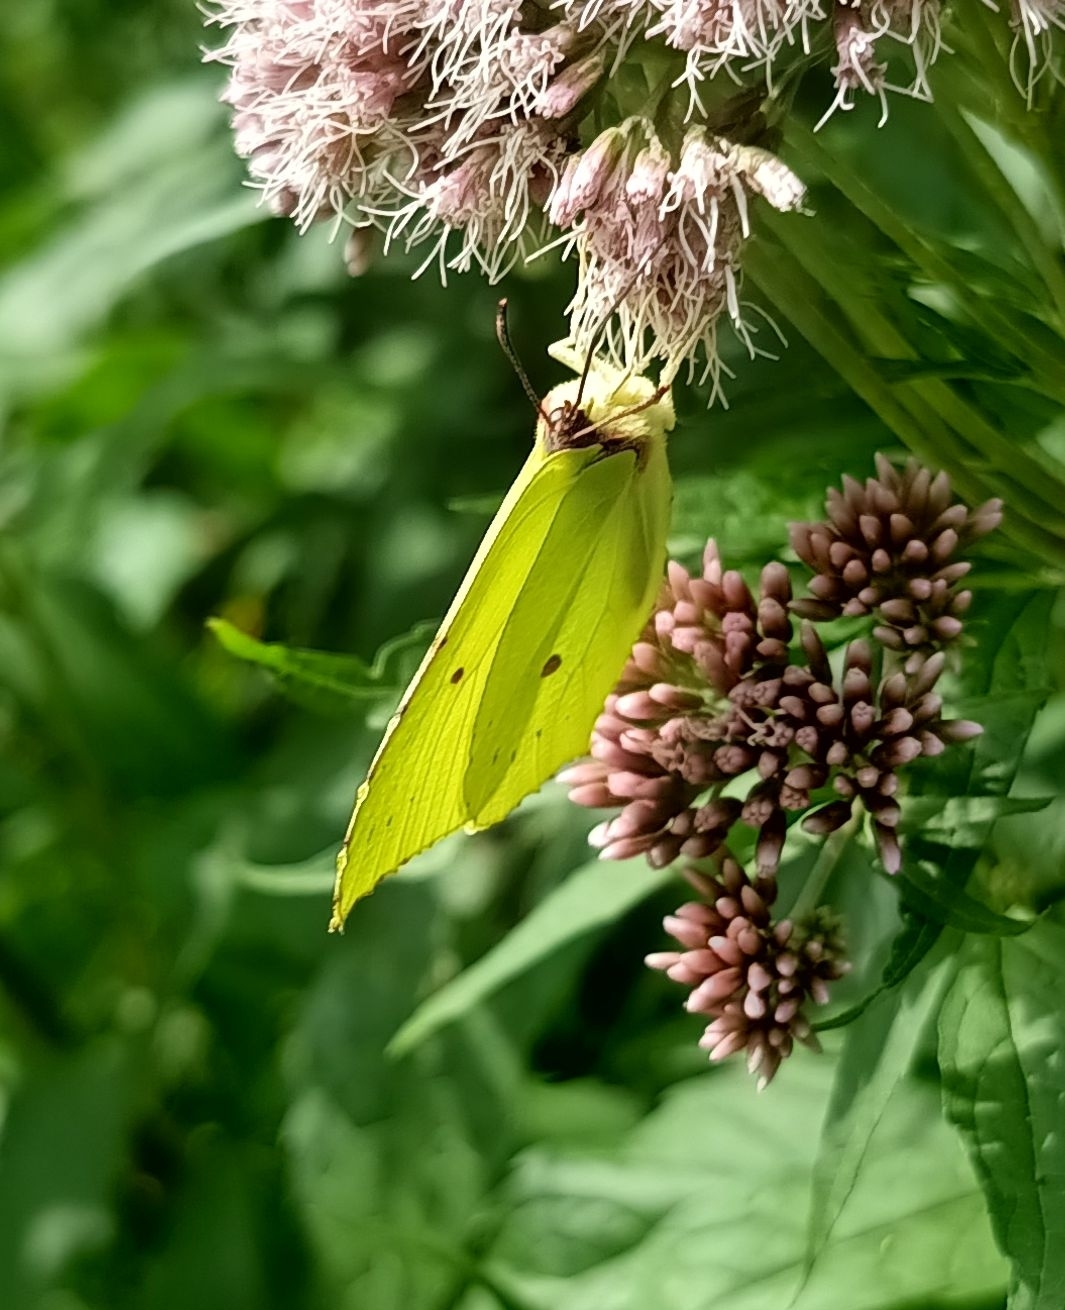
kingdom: Animalia
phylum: Arthropoda
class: Insecta
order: Lepidoptera
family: Pieridae
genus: Gonepteryx
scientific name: Gonepteryx rhamni
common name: Brimstone
